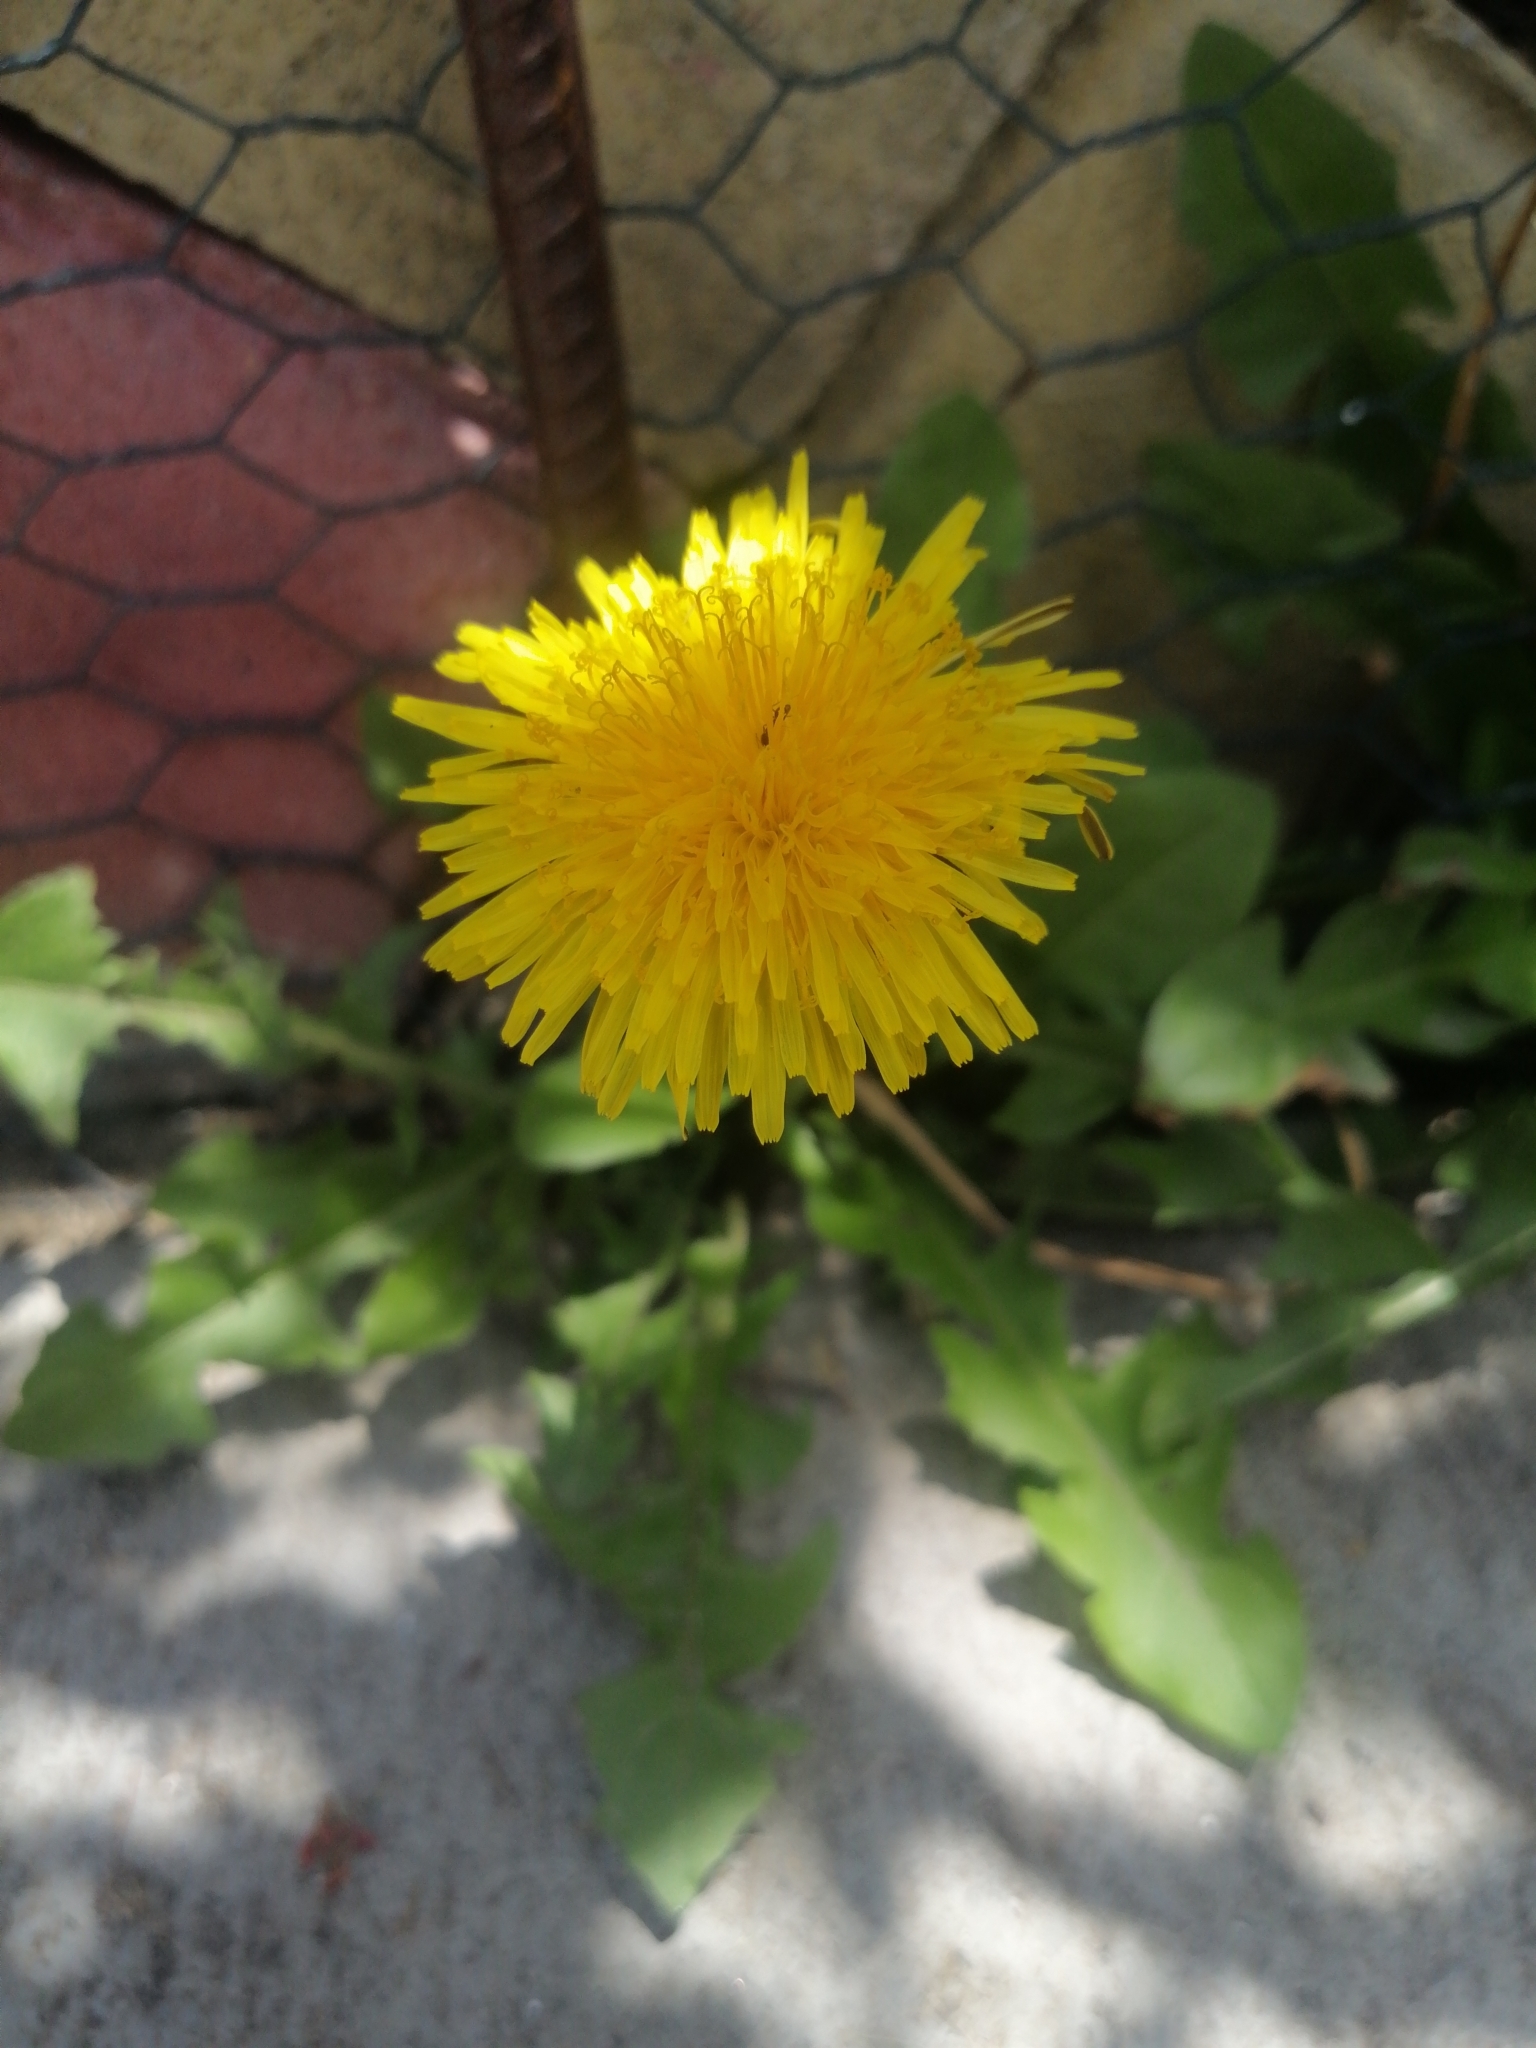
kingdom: Plantae
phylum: Tracheophyta
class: Magnoliopsida
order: Asterales
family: Asteraceae
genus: Taraxacum
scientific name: Taraxacum officinale
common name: Common dandelion
